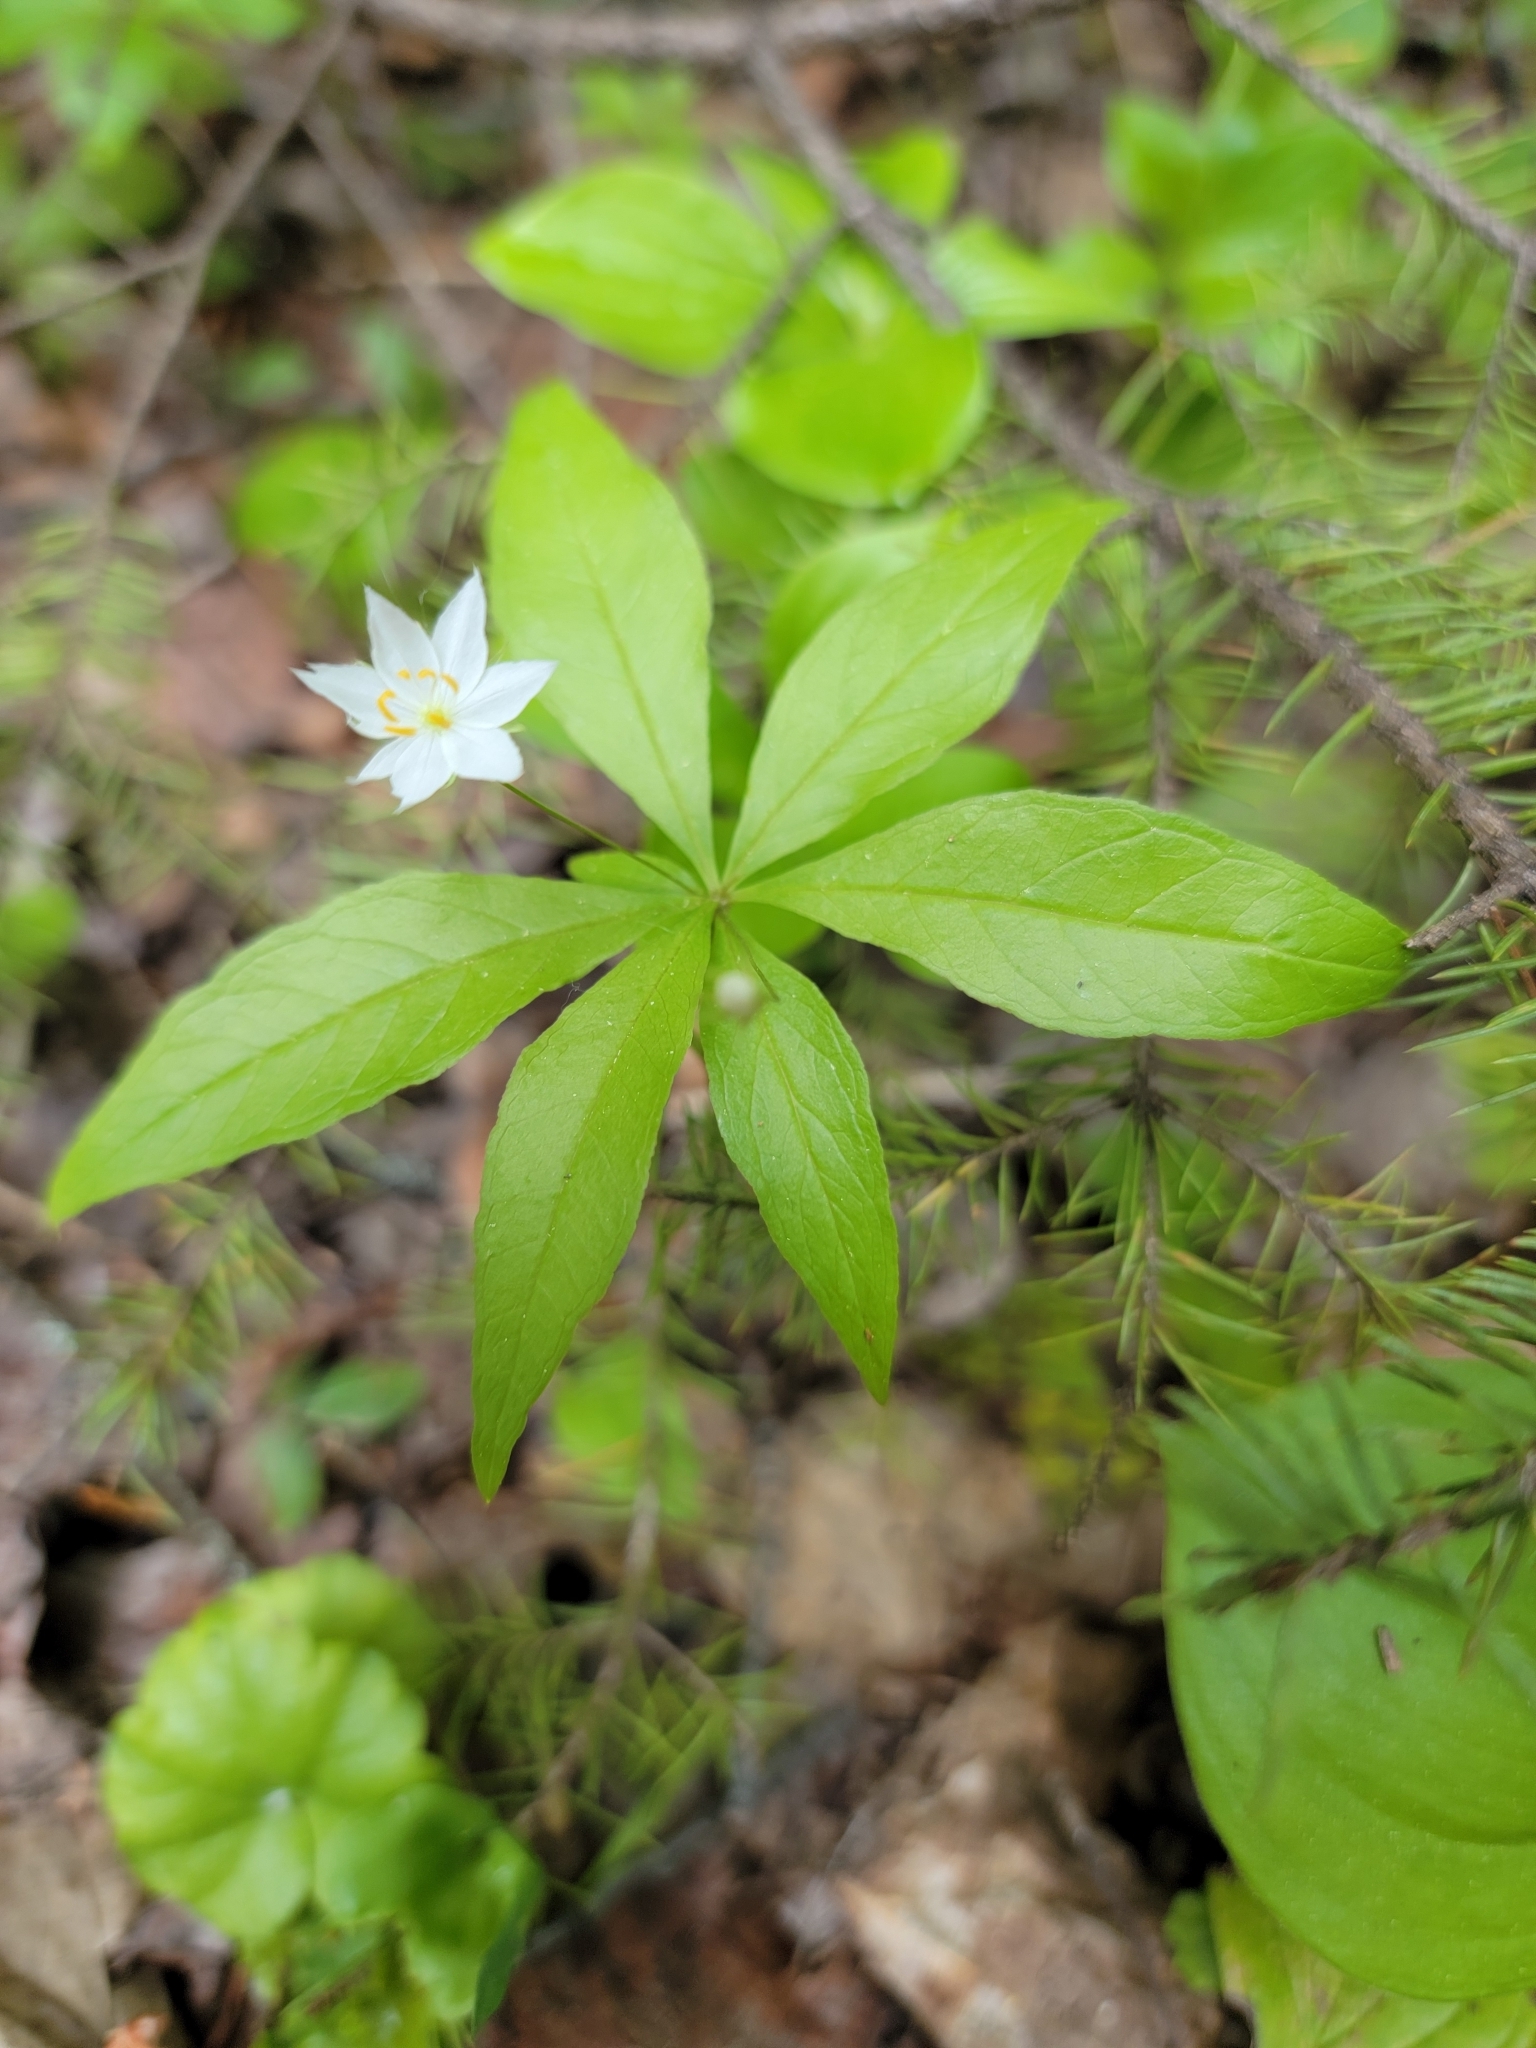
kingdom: Plantae
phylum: Tracheophyta
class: Magnoliopsida
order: Ericales
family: Primulaceae
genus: Lysimachia
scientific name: Lysimachia borealis
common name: American starflower
